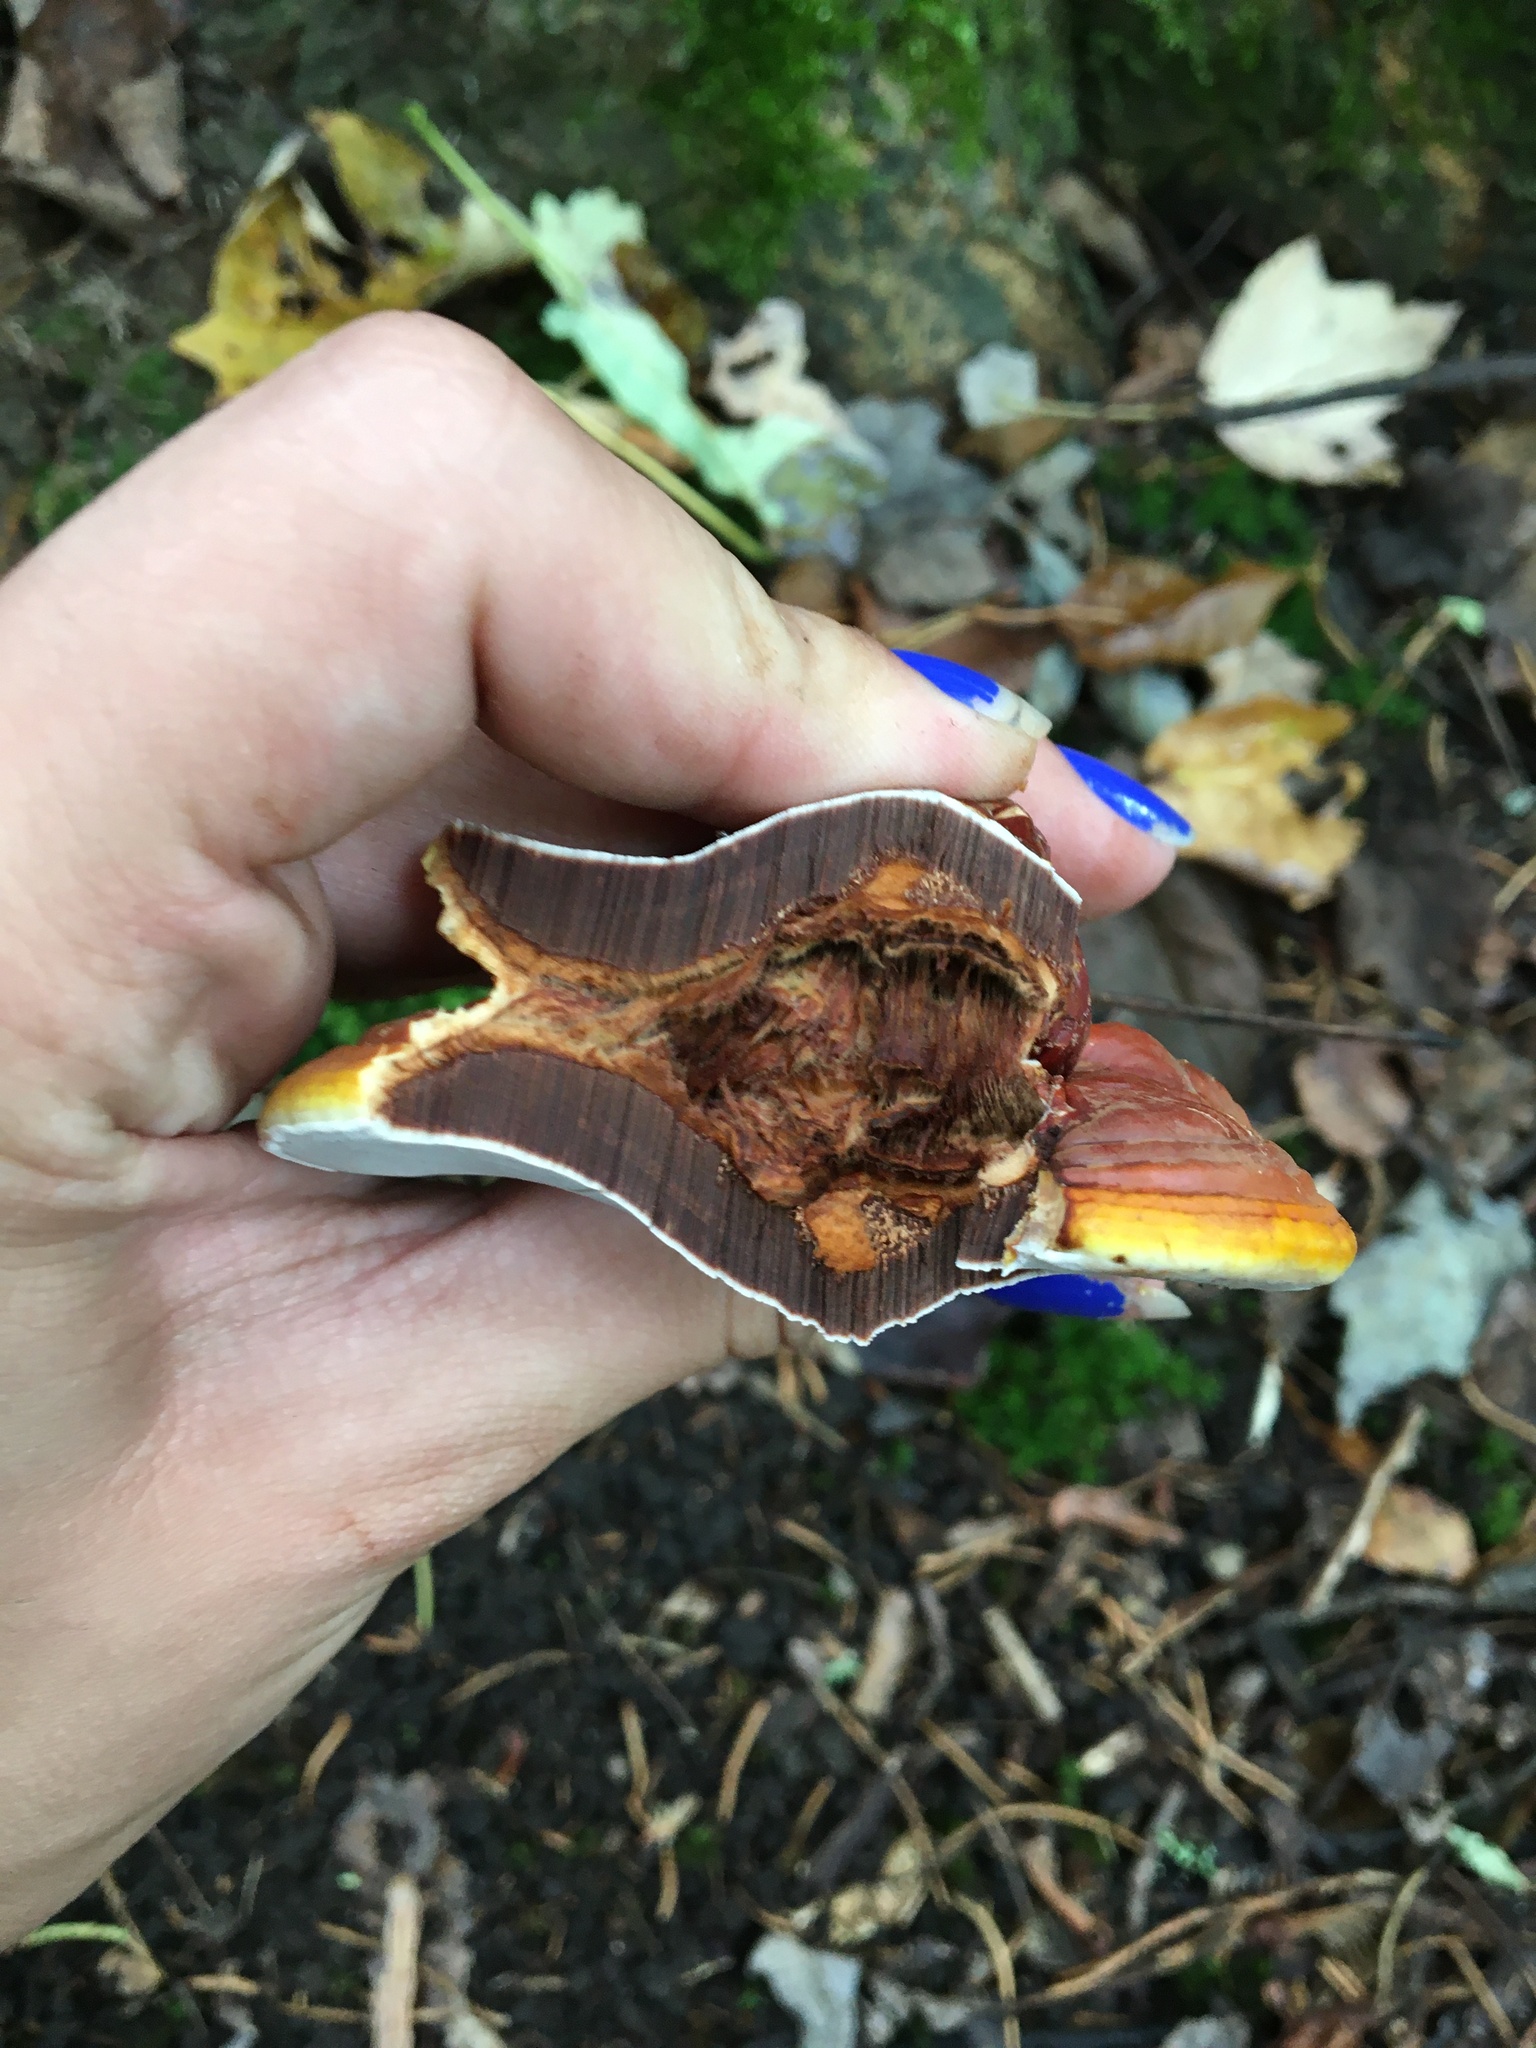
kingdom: Fungi
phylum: Basidiomycota
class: Agaricomycetes
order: Polyporales
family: Polyporaceae
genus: Ganoderma
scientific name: Ganoderma curtisii
